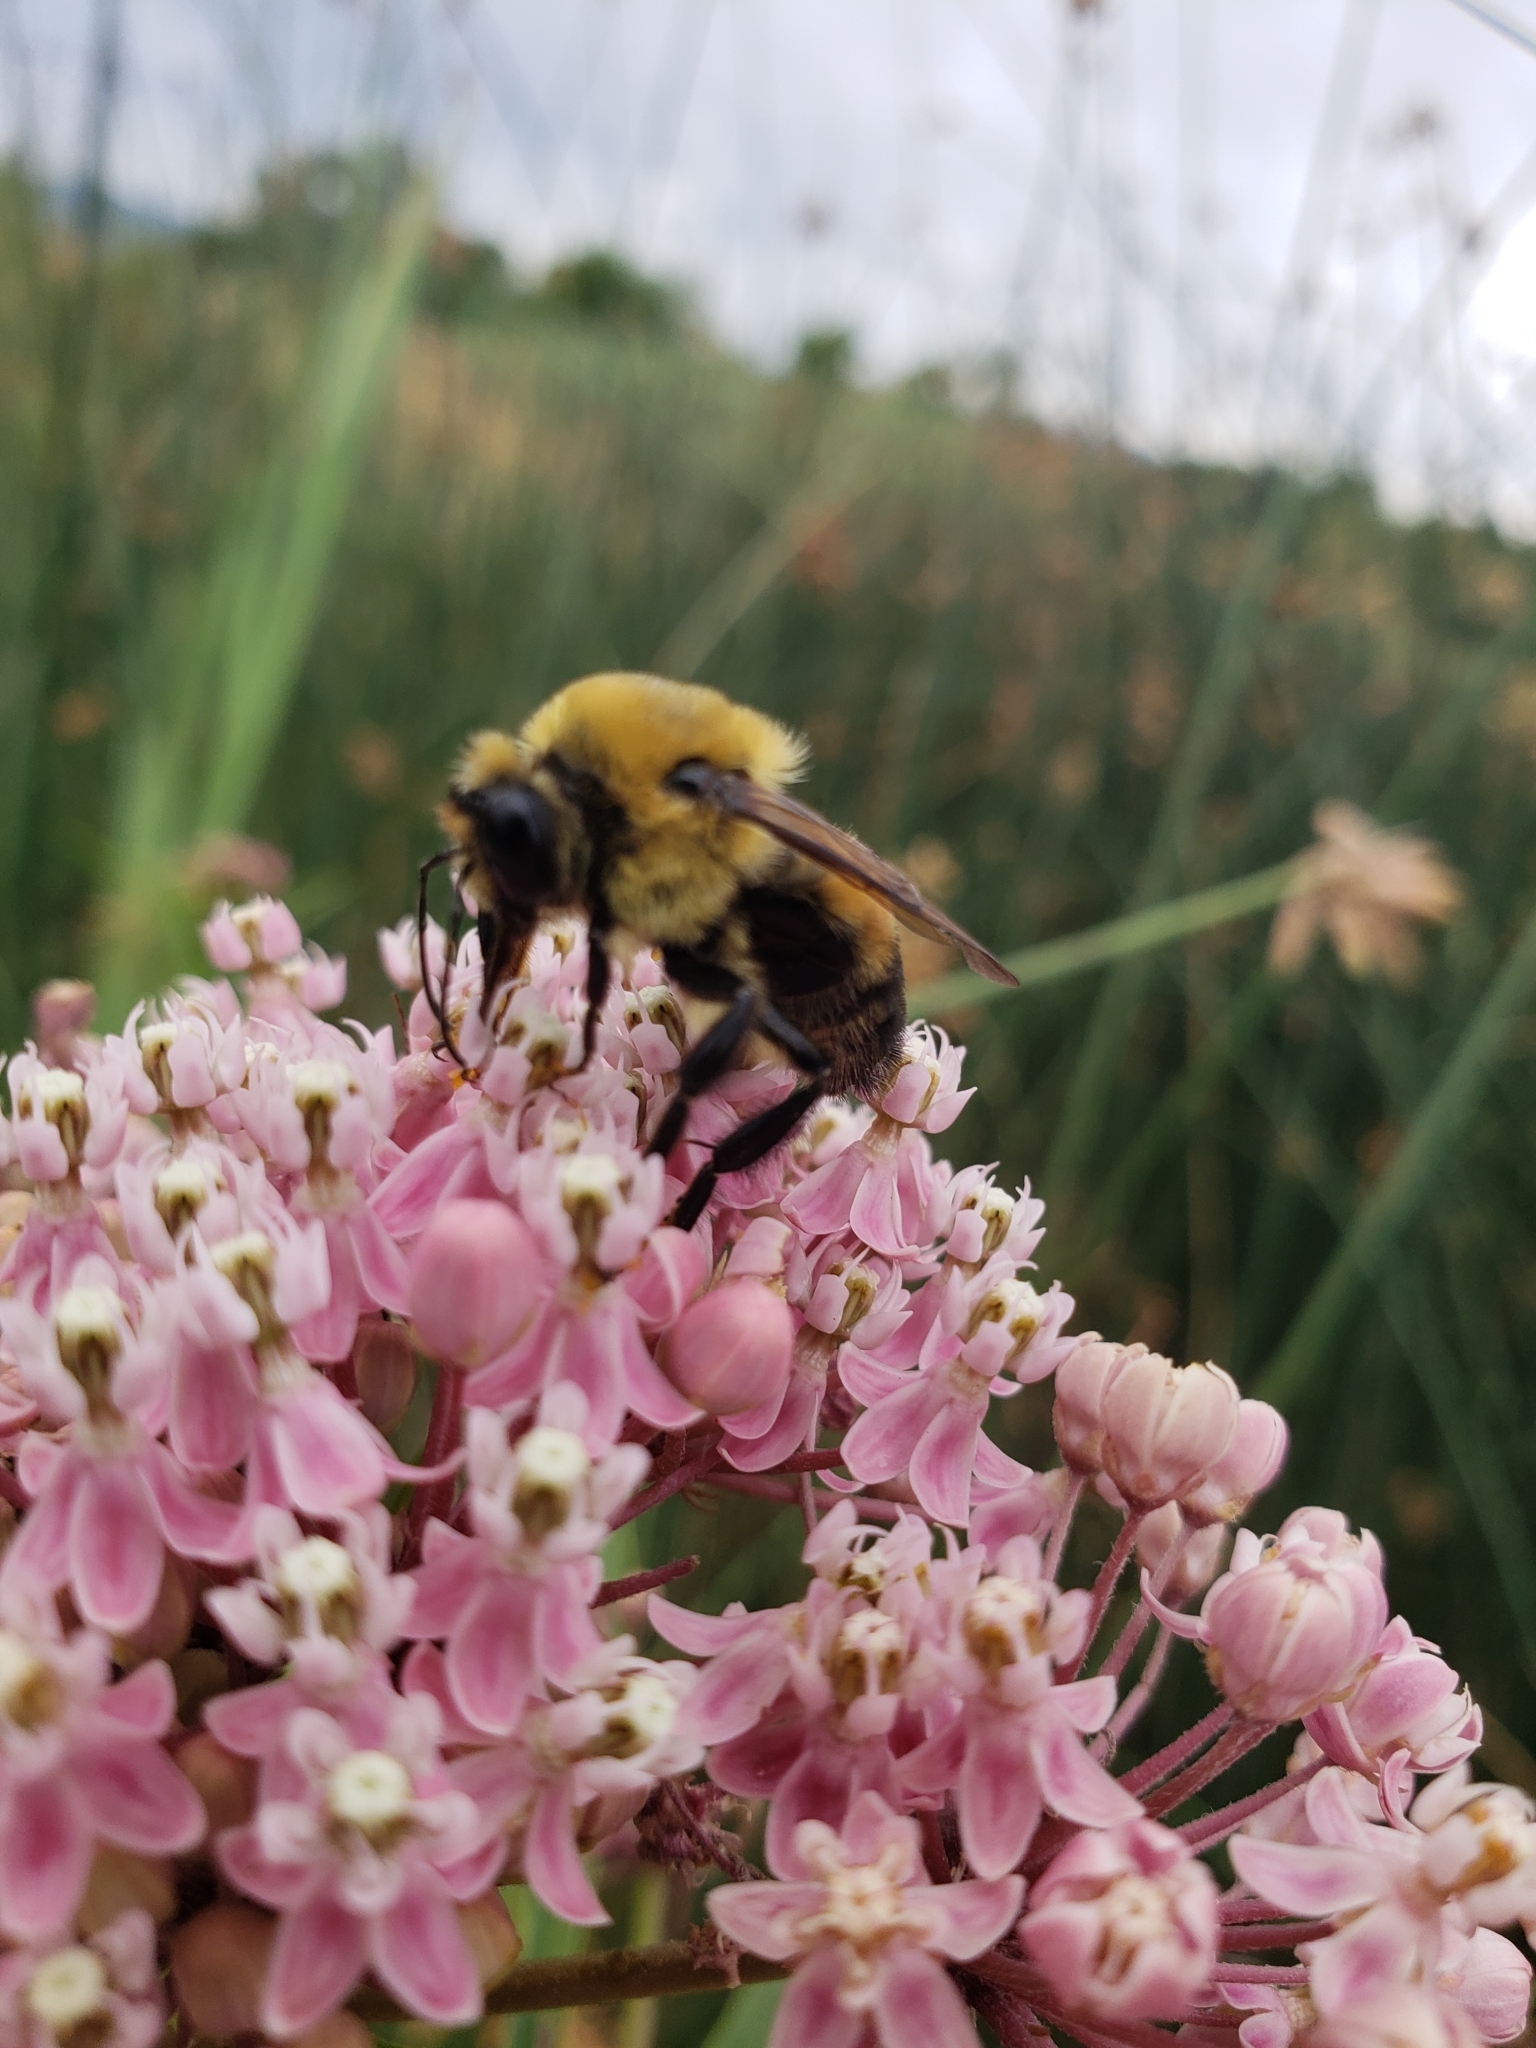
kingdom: Animalia
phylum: Arthropoda
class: Insecta
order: Hymenoptera
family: Apidae
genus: Bombus
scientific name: Bombus griseocollis
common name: Brown-belted bumble bee
